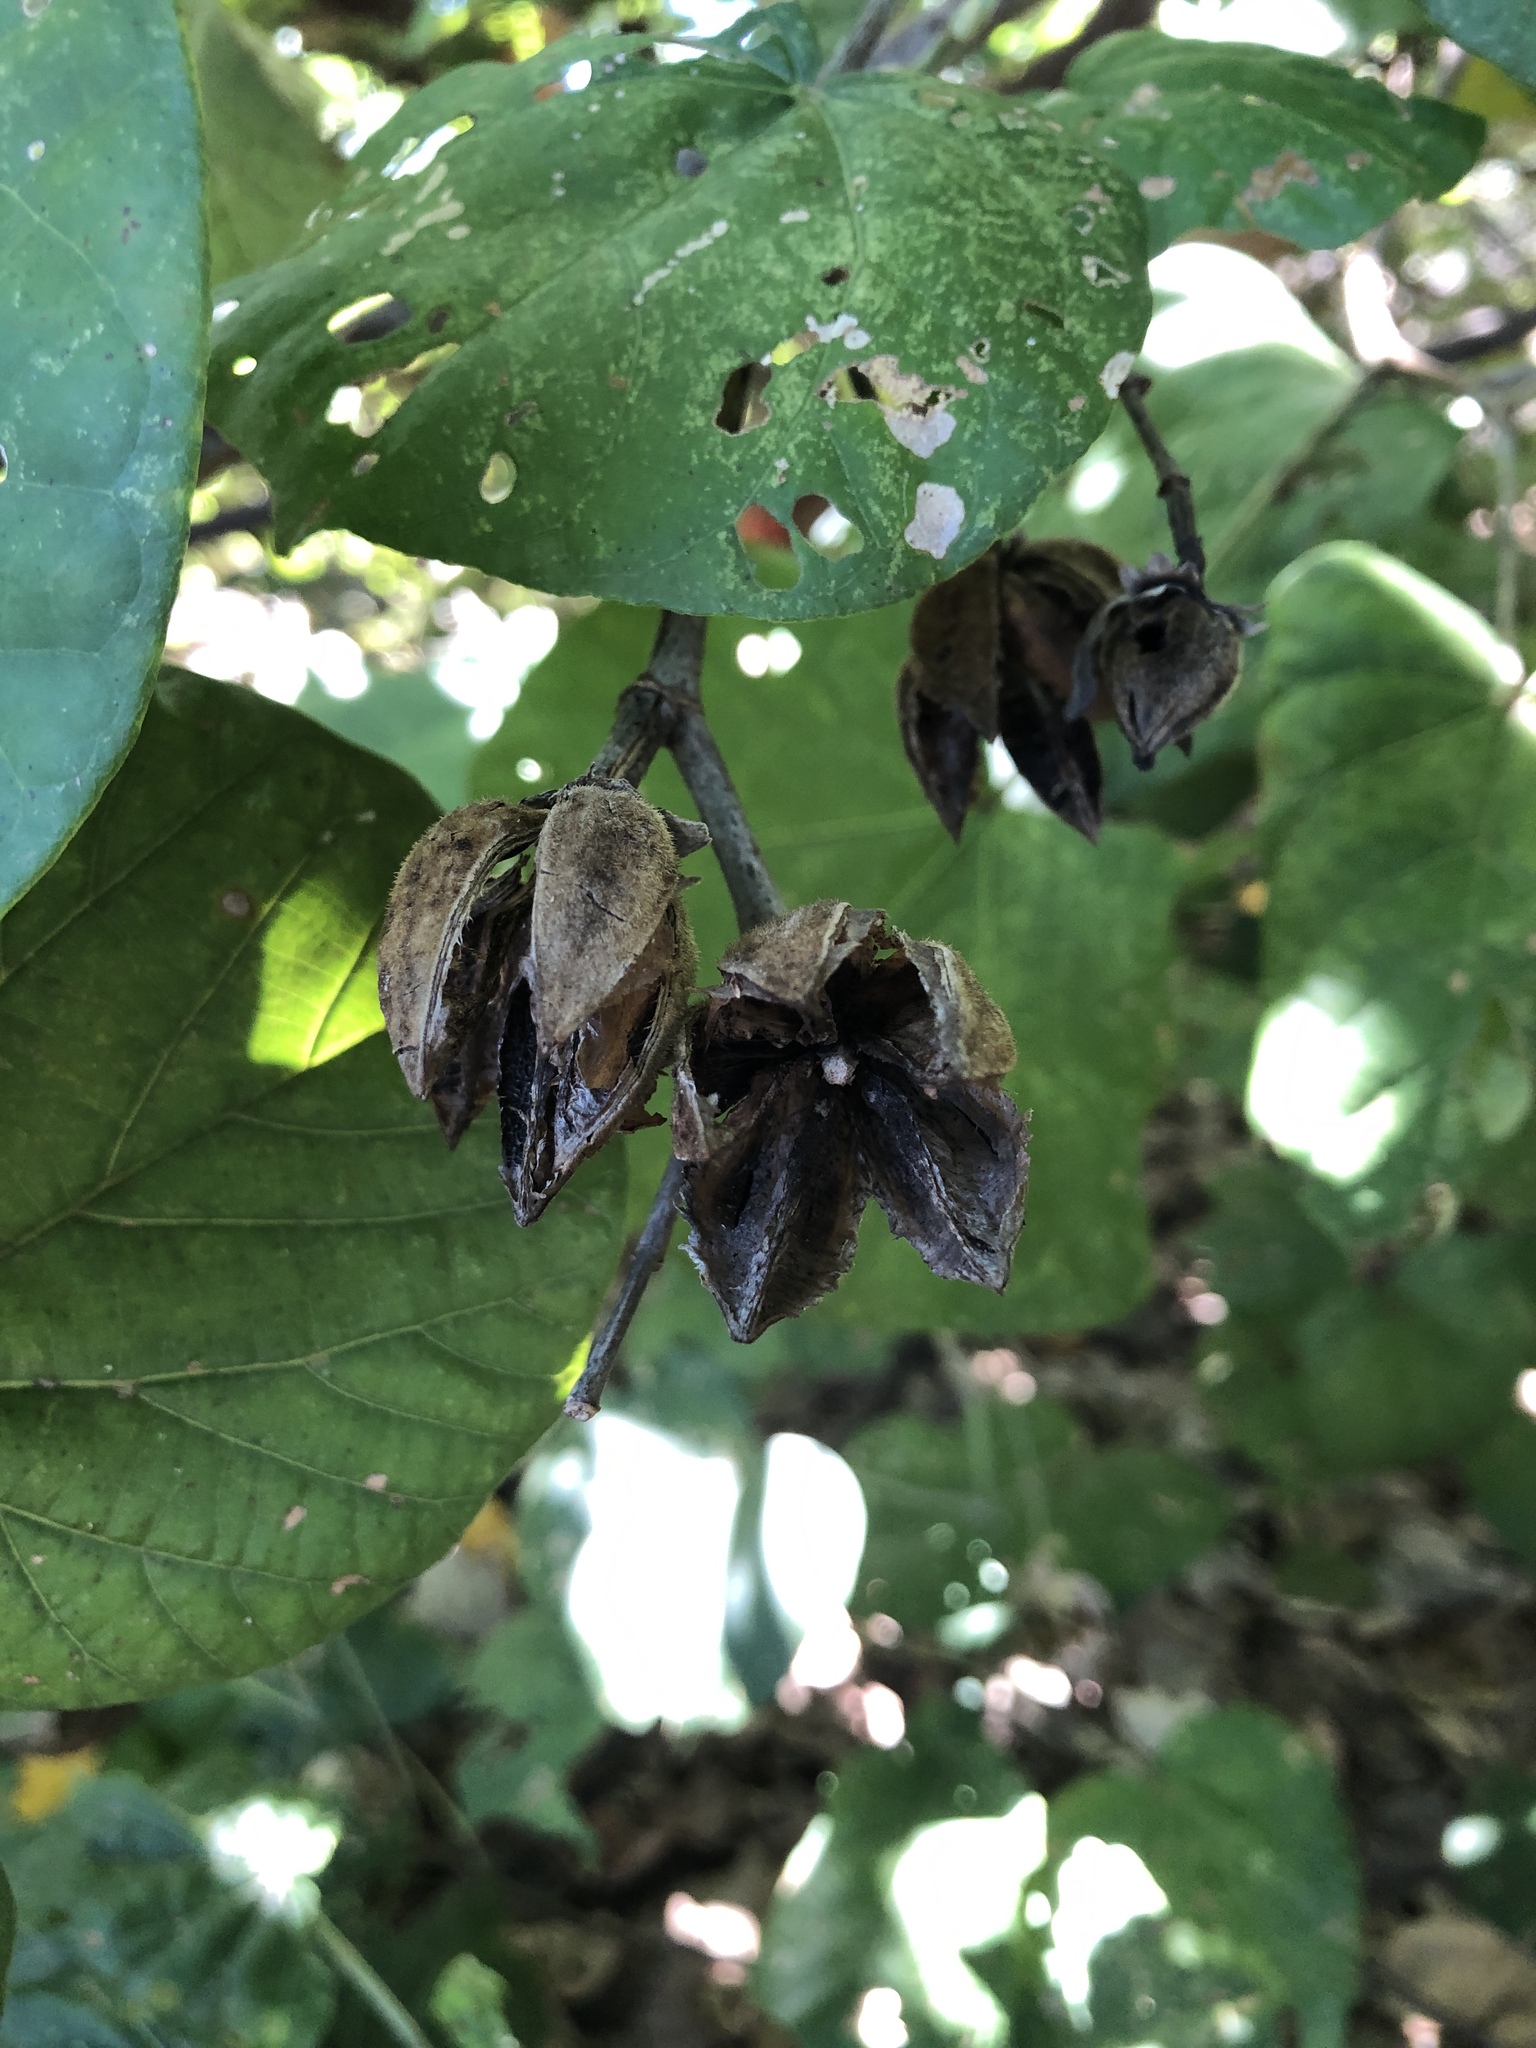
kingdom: Plantae
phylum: Tracheophyta
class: Magnoliopsida
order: Malvales
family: Malvaceae
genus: Talipariti
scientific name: Talipariti tiliaceum
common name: Sea hibiscus
